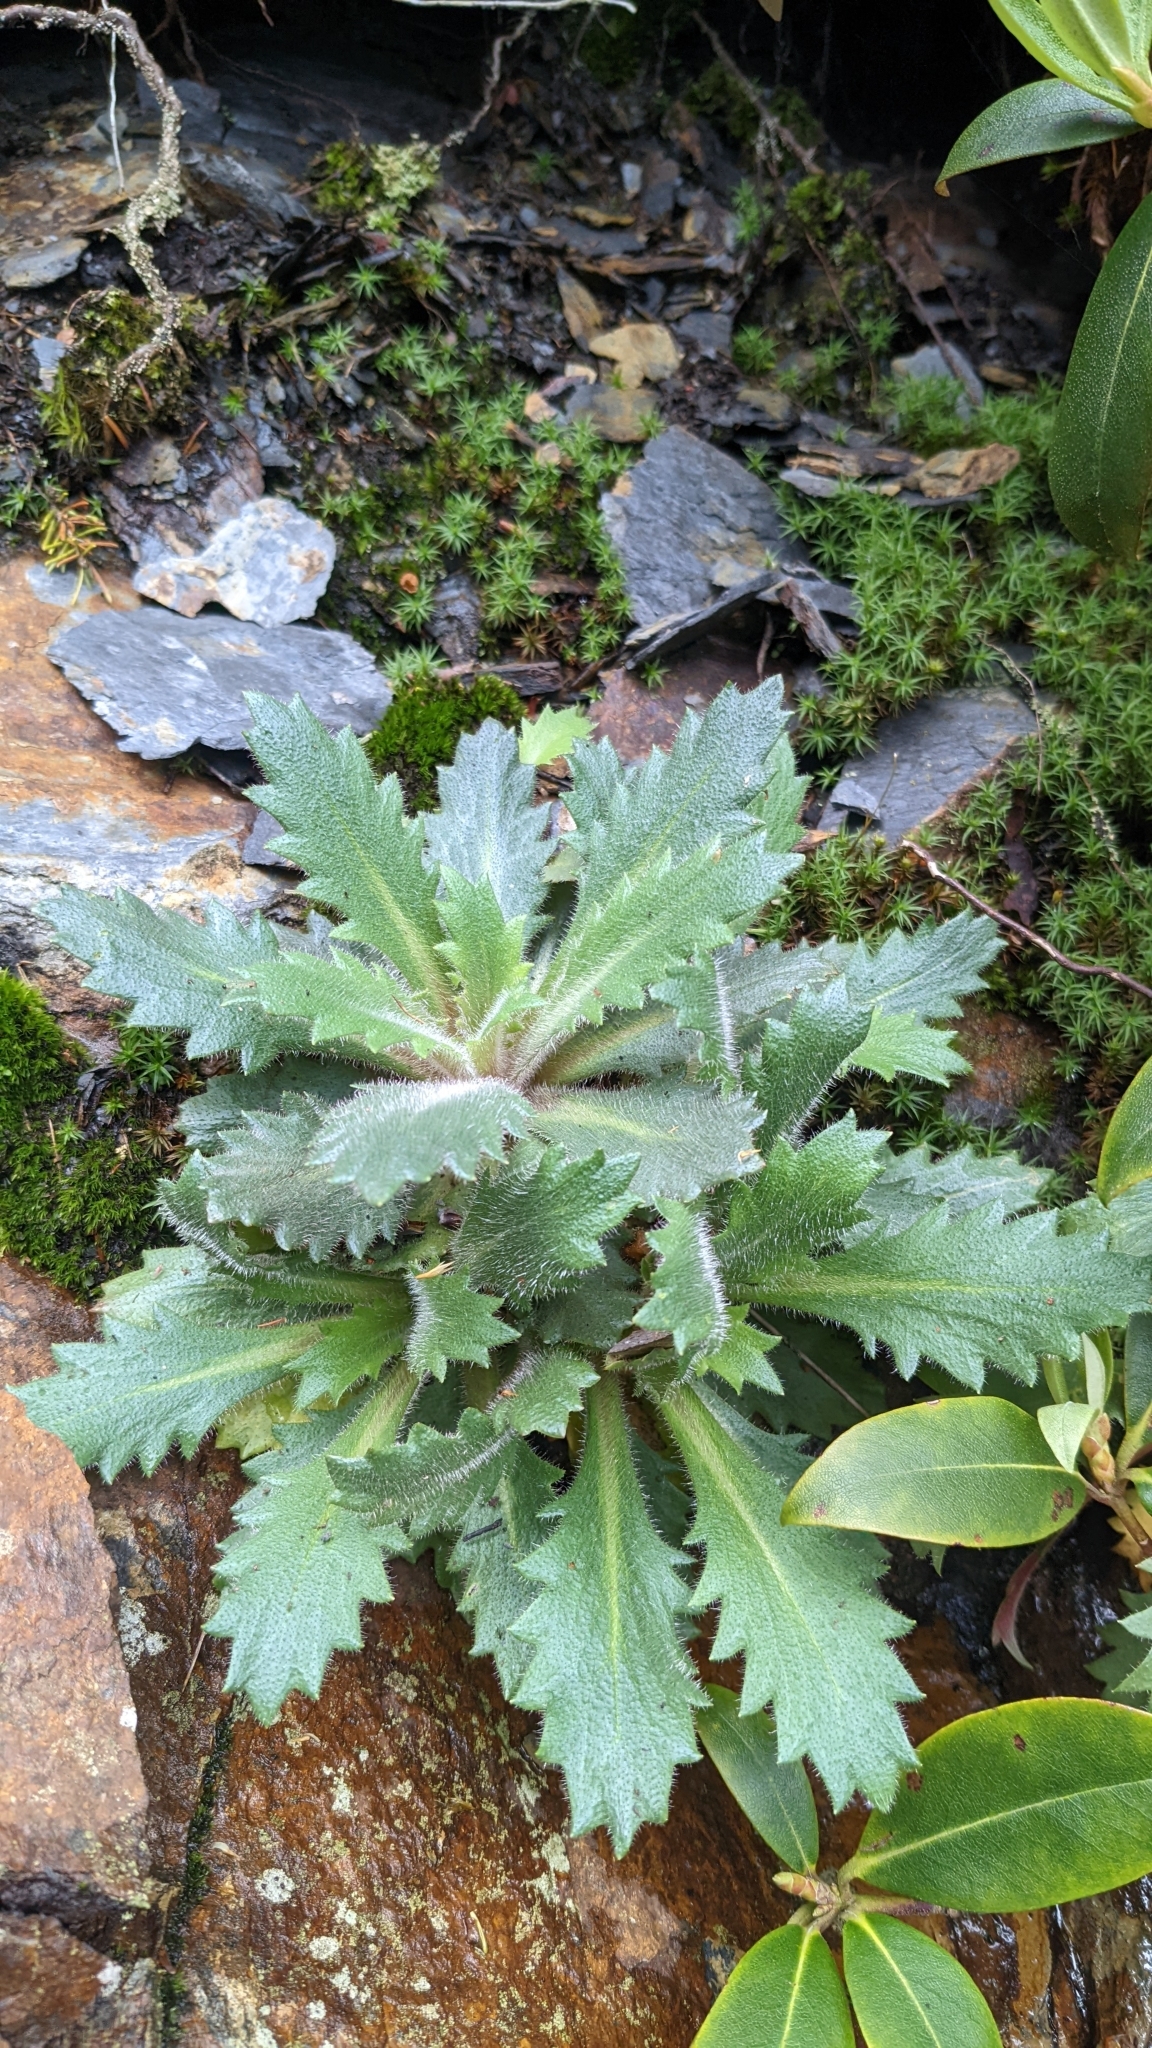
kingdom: Plantae
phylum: Tracheophyta
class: Magnoliopsida
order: Saxifragales
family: Saxifragaceae
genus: Micranthes
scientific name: Micranthes petiolaris
